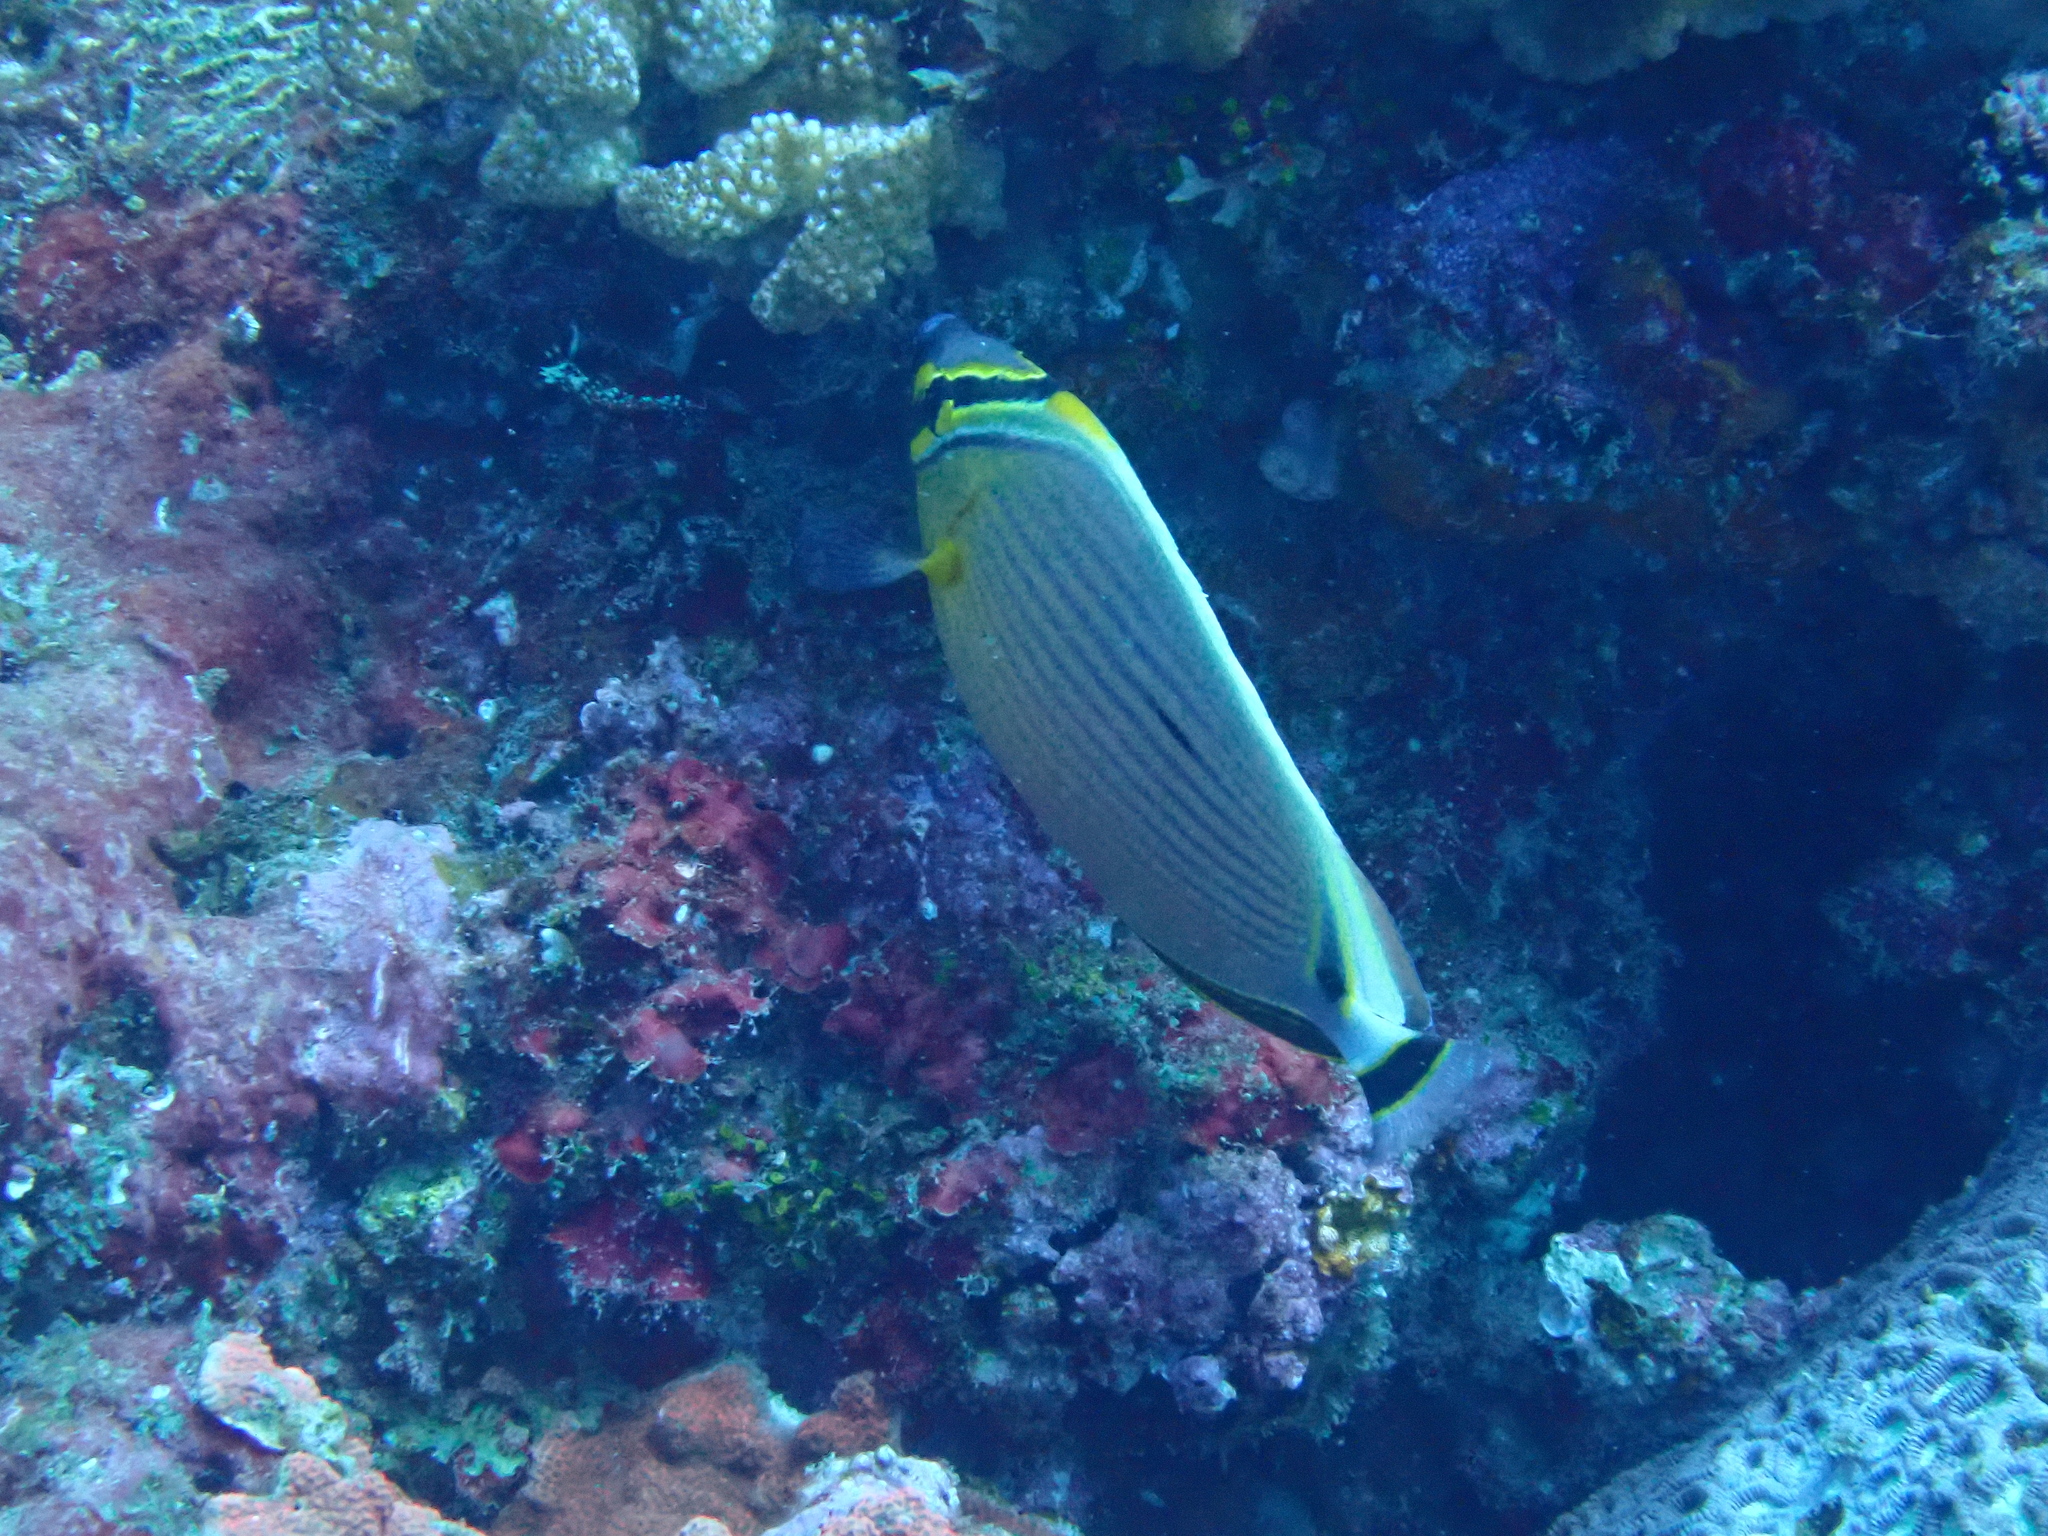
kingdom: Animalia
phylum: Chordata
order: Perciformes
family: Chaetodontidae
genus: Chaetodon
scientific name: Chaetodon lunulatus
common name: Redfin butterflyfish
